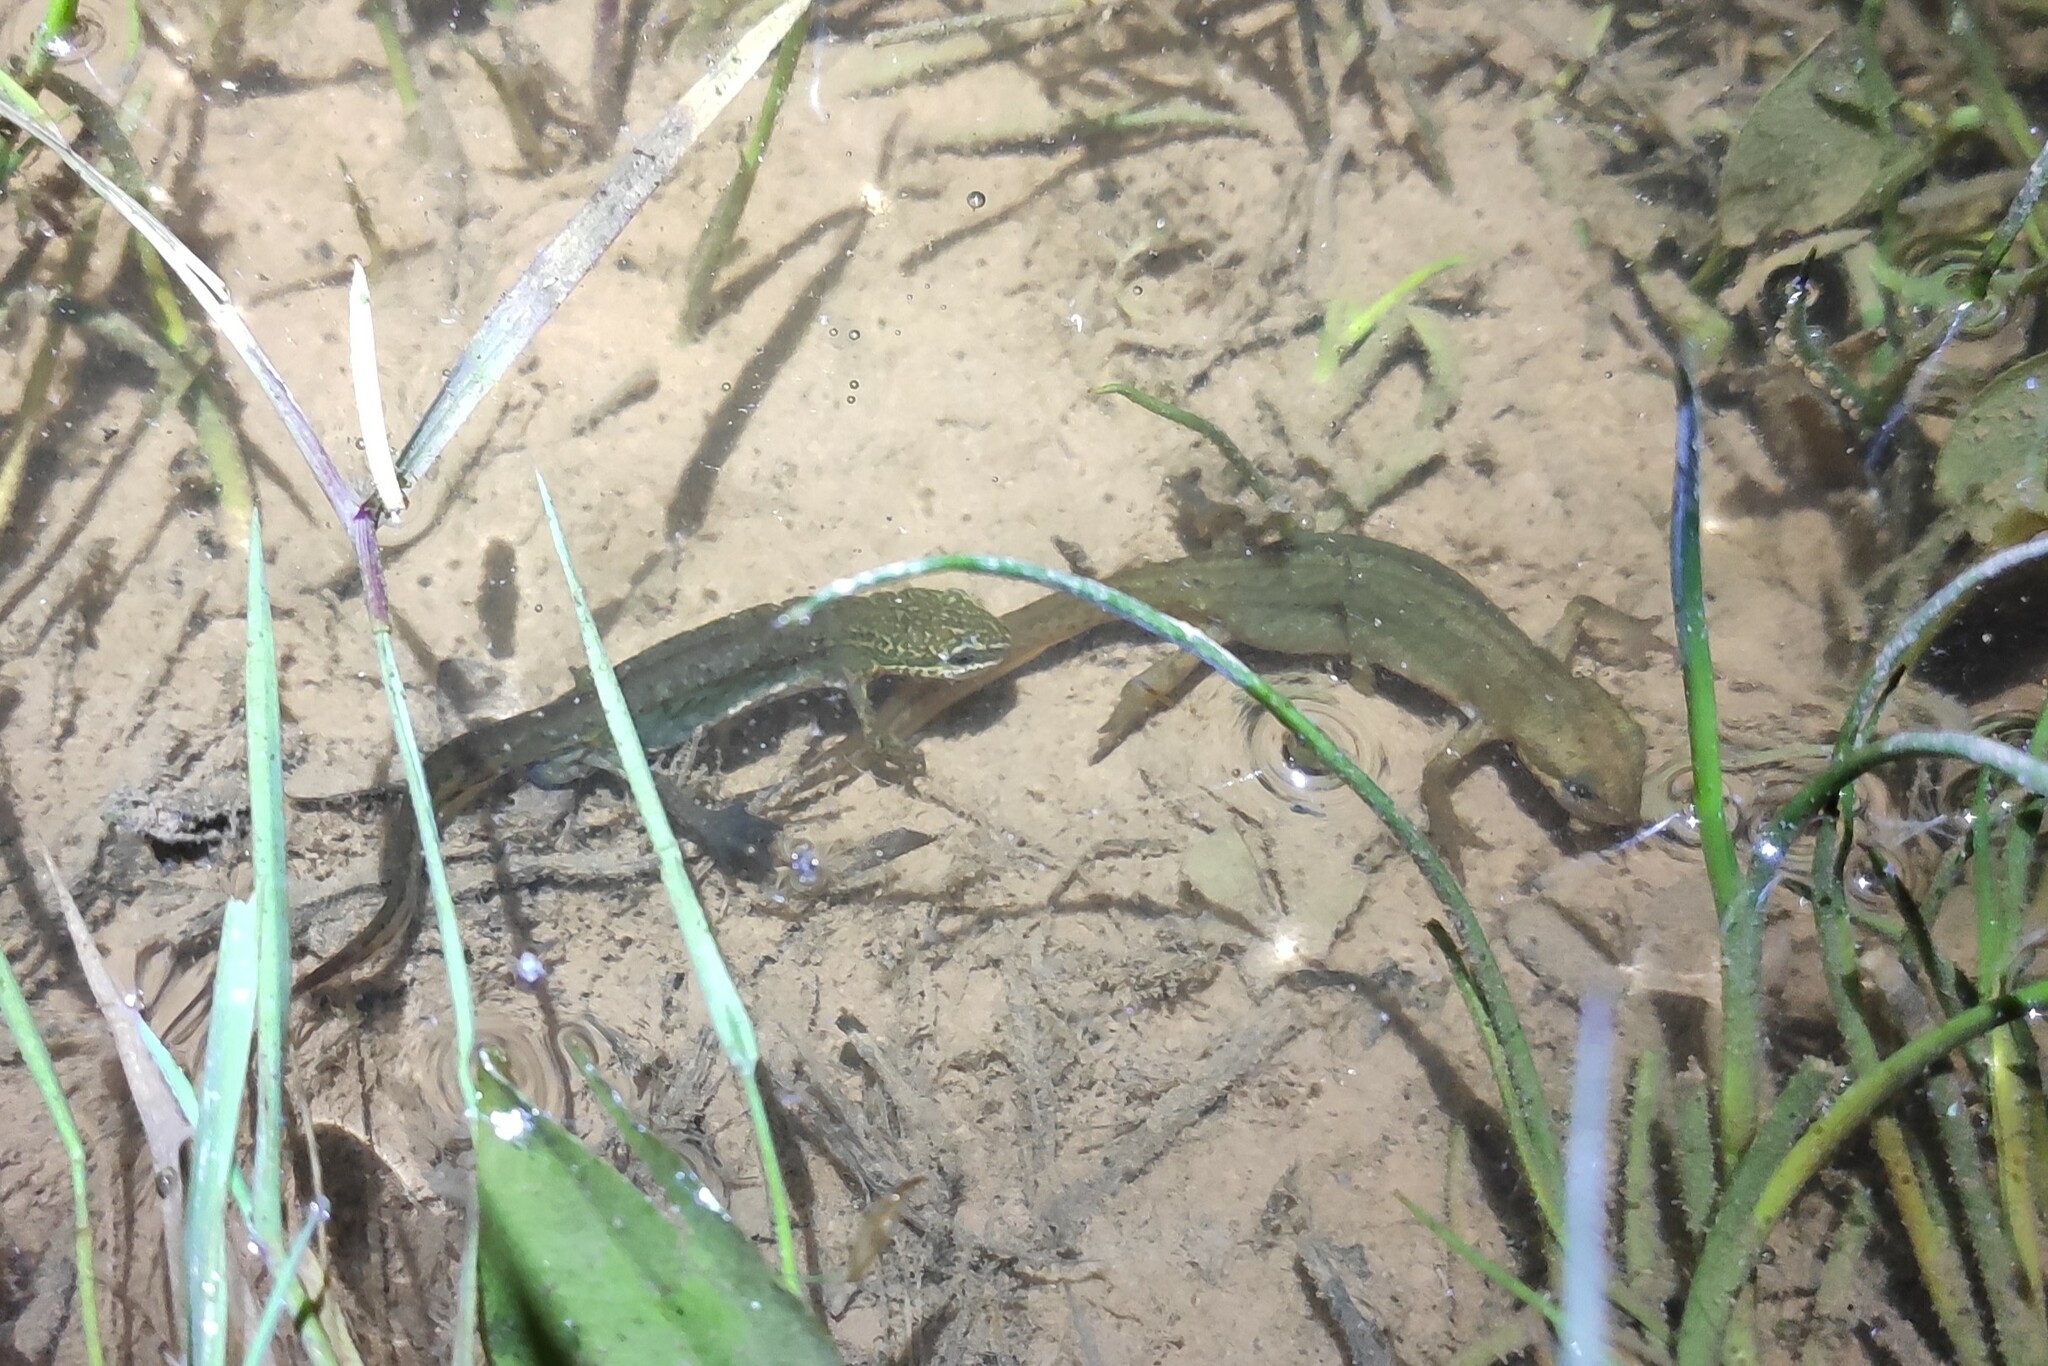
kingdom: Animalia
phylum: Chordata
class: Amphibia
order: Caudata
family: Salamandridae
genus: Lissotriton
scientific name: Lissotriton helveticus
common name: Palmate newt
